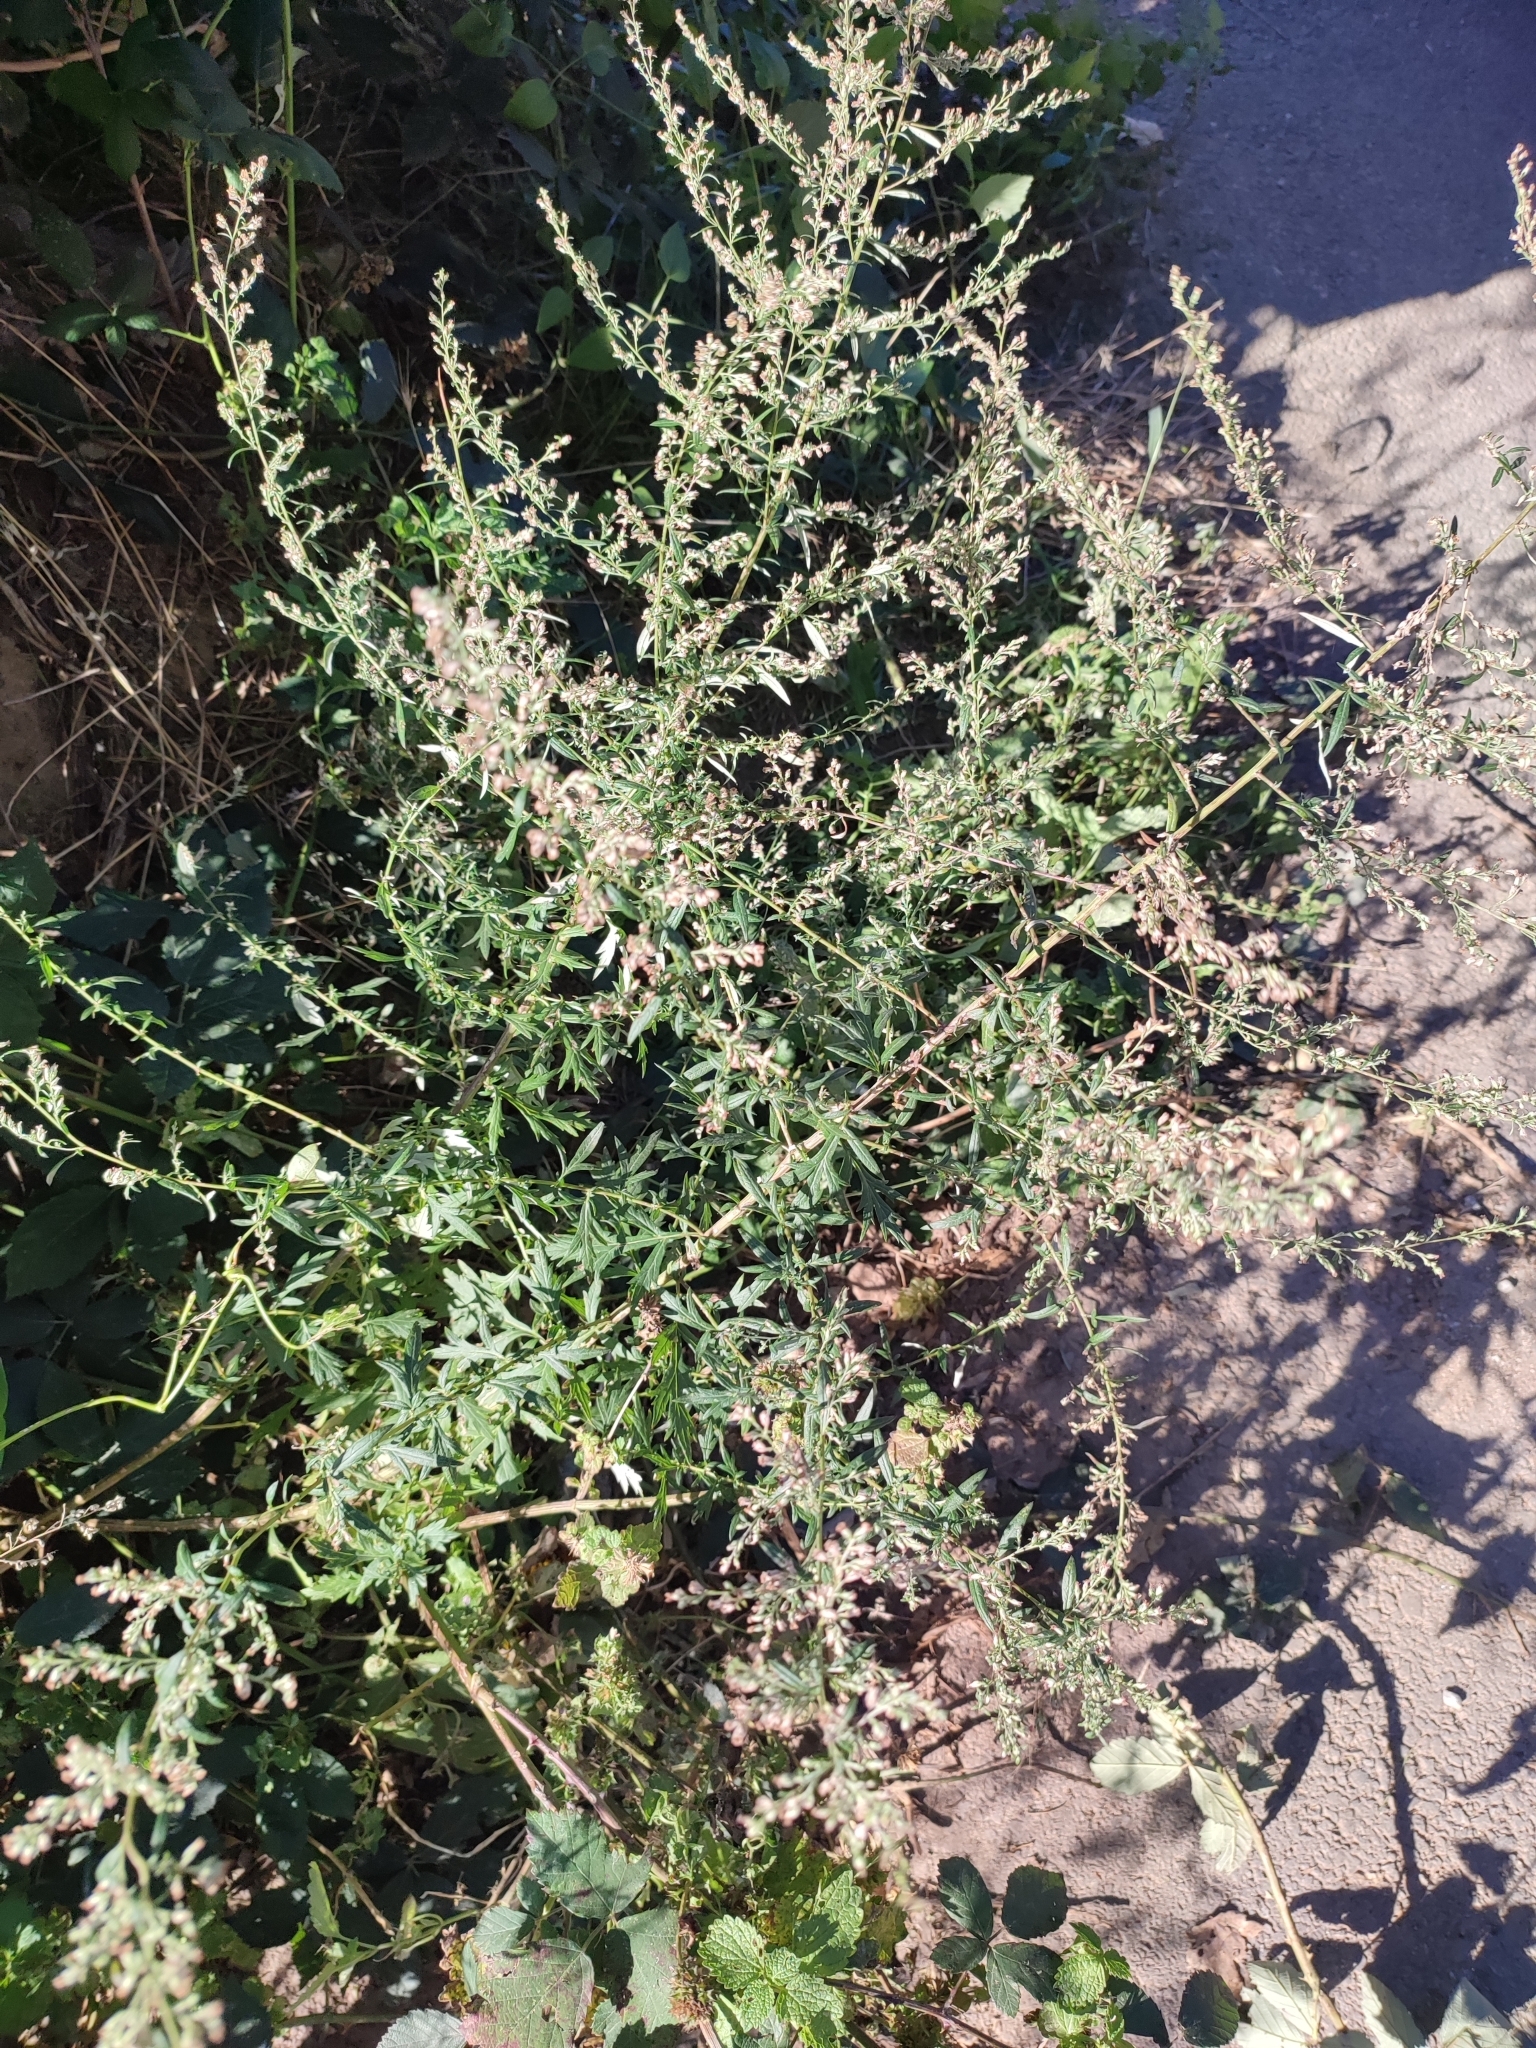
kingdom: Plantae
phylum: Tracheophyta
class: Magnoliopsida
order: Asterales
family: Asteraceae
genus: Artemisia
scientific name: Artemisia vulgaris
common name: Mugwort
